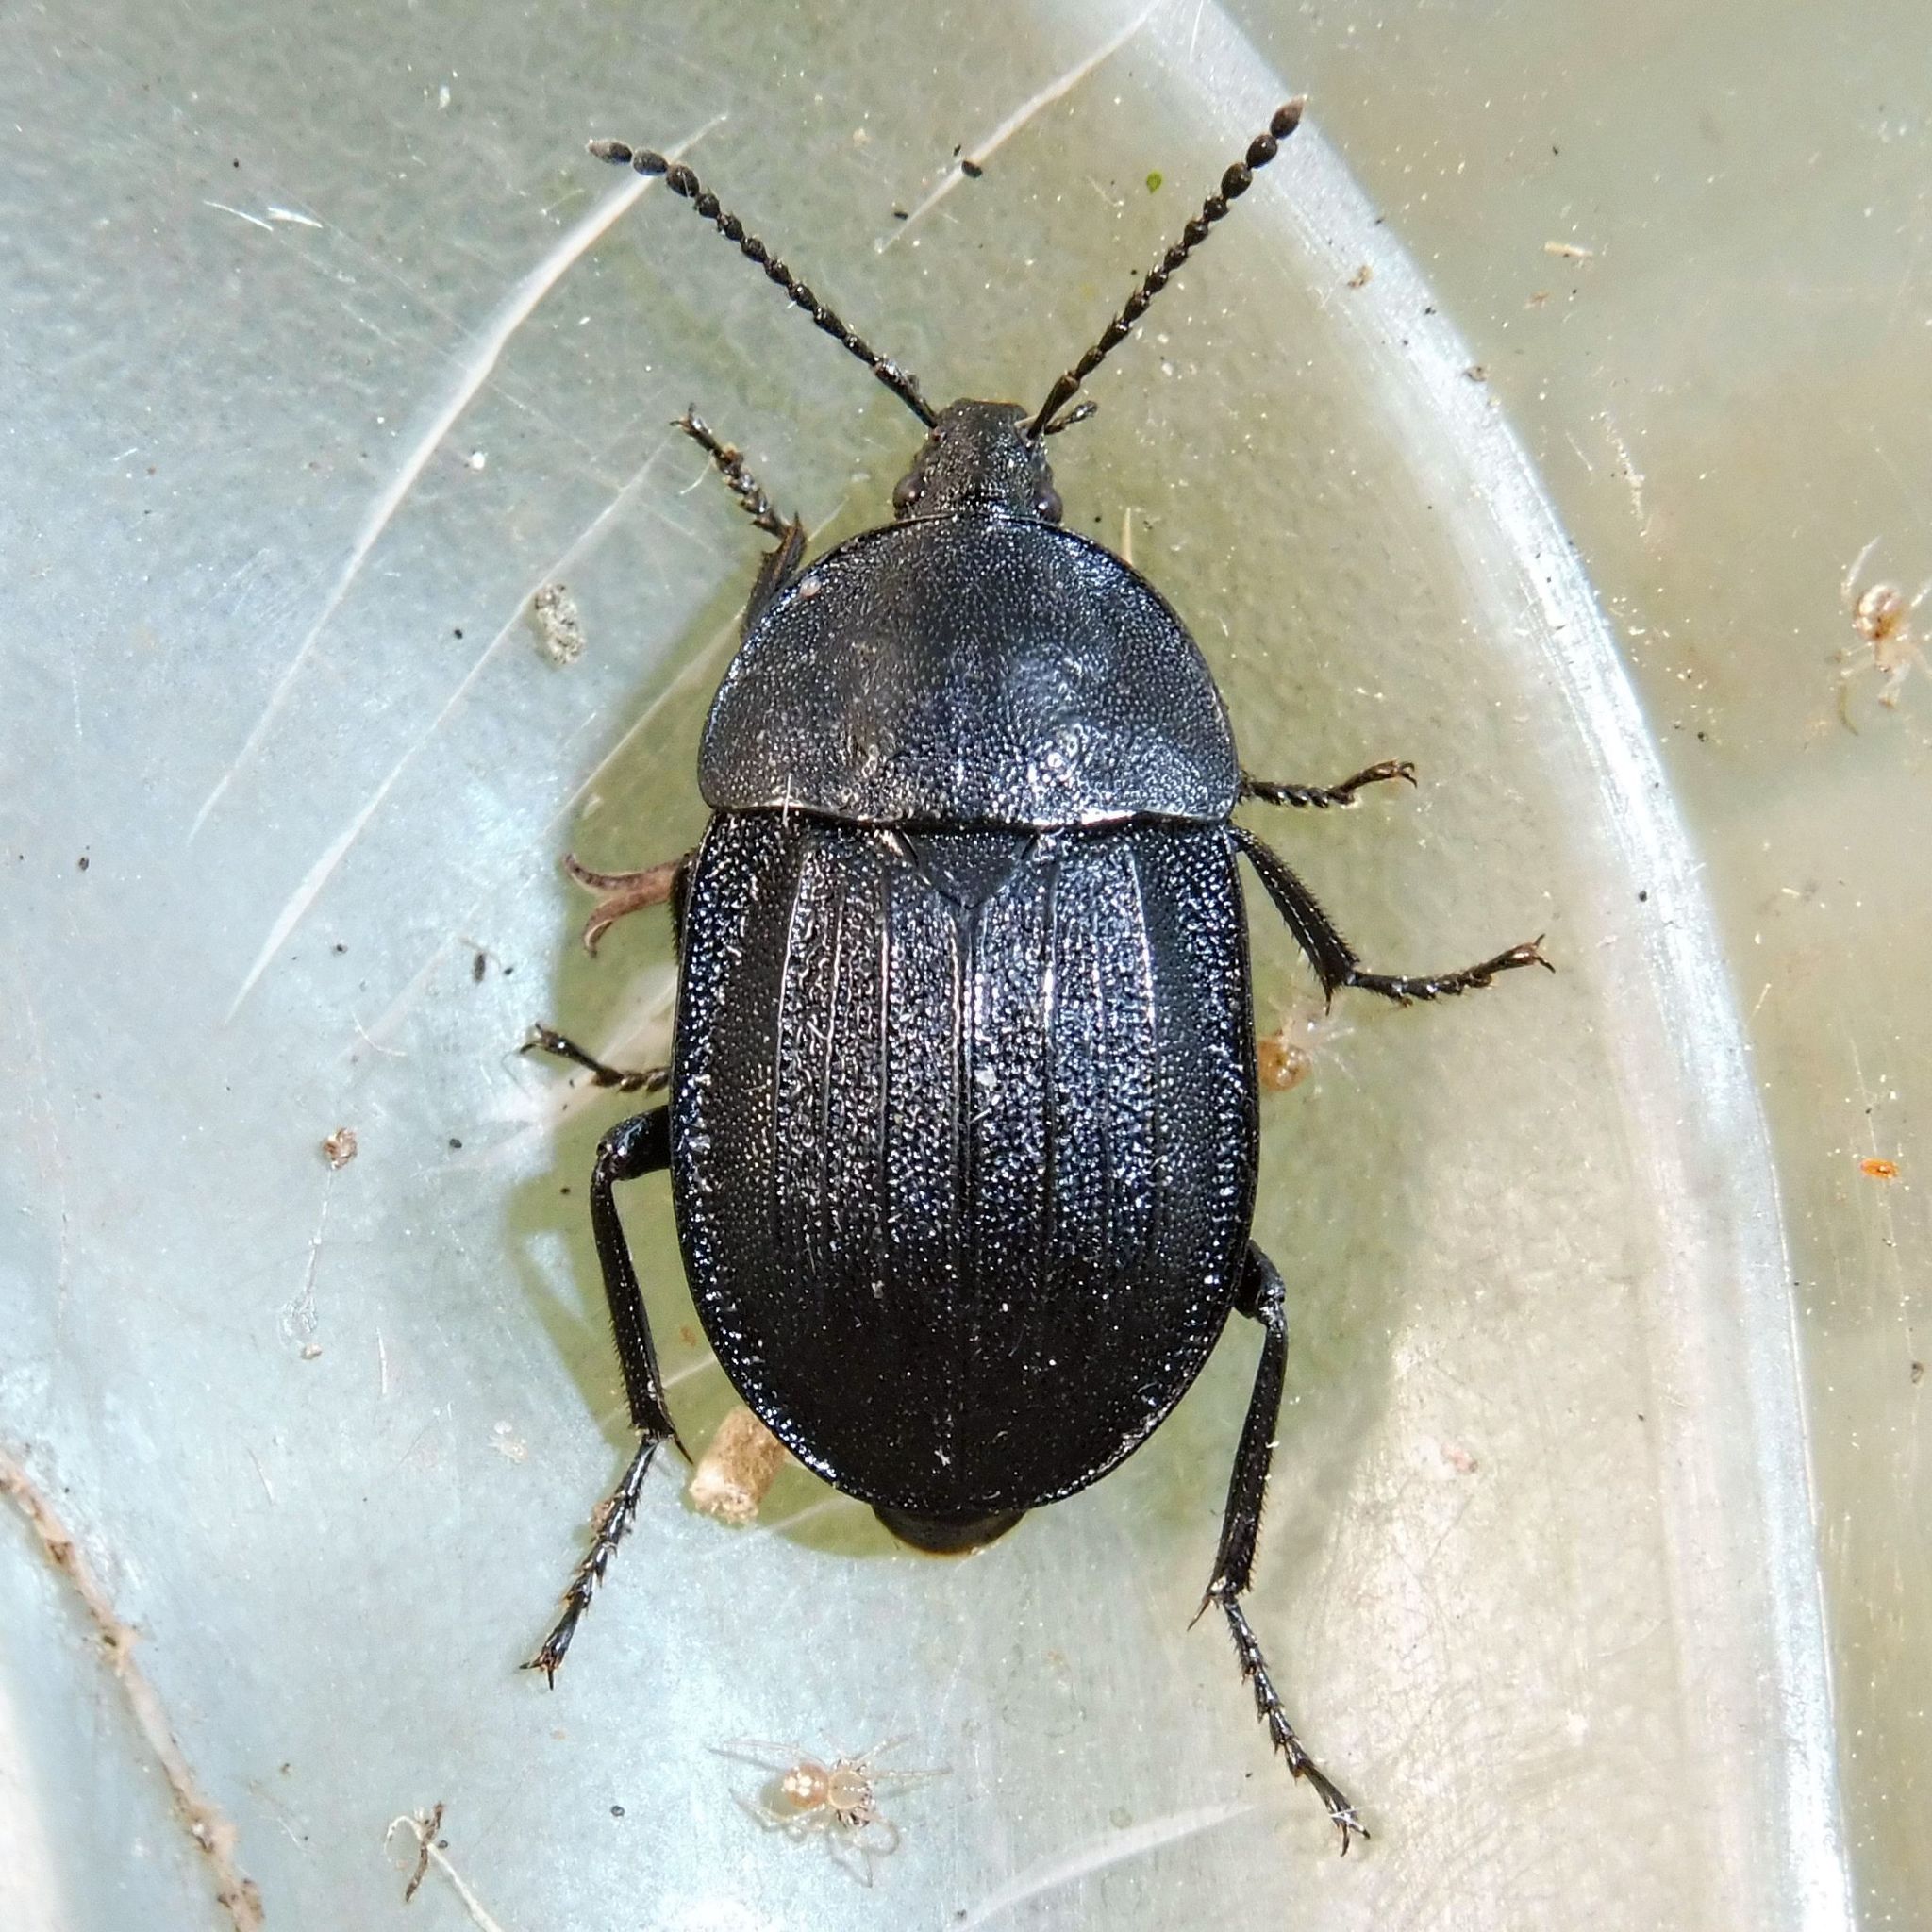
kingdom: Animalia
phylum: Arthropoda
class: Insecta
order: Coleoptera
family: Staphylinidae
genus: Silpha
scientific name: Silpha atrata
